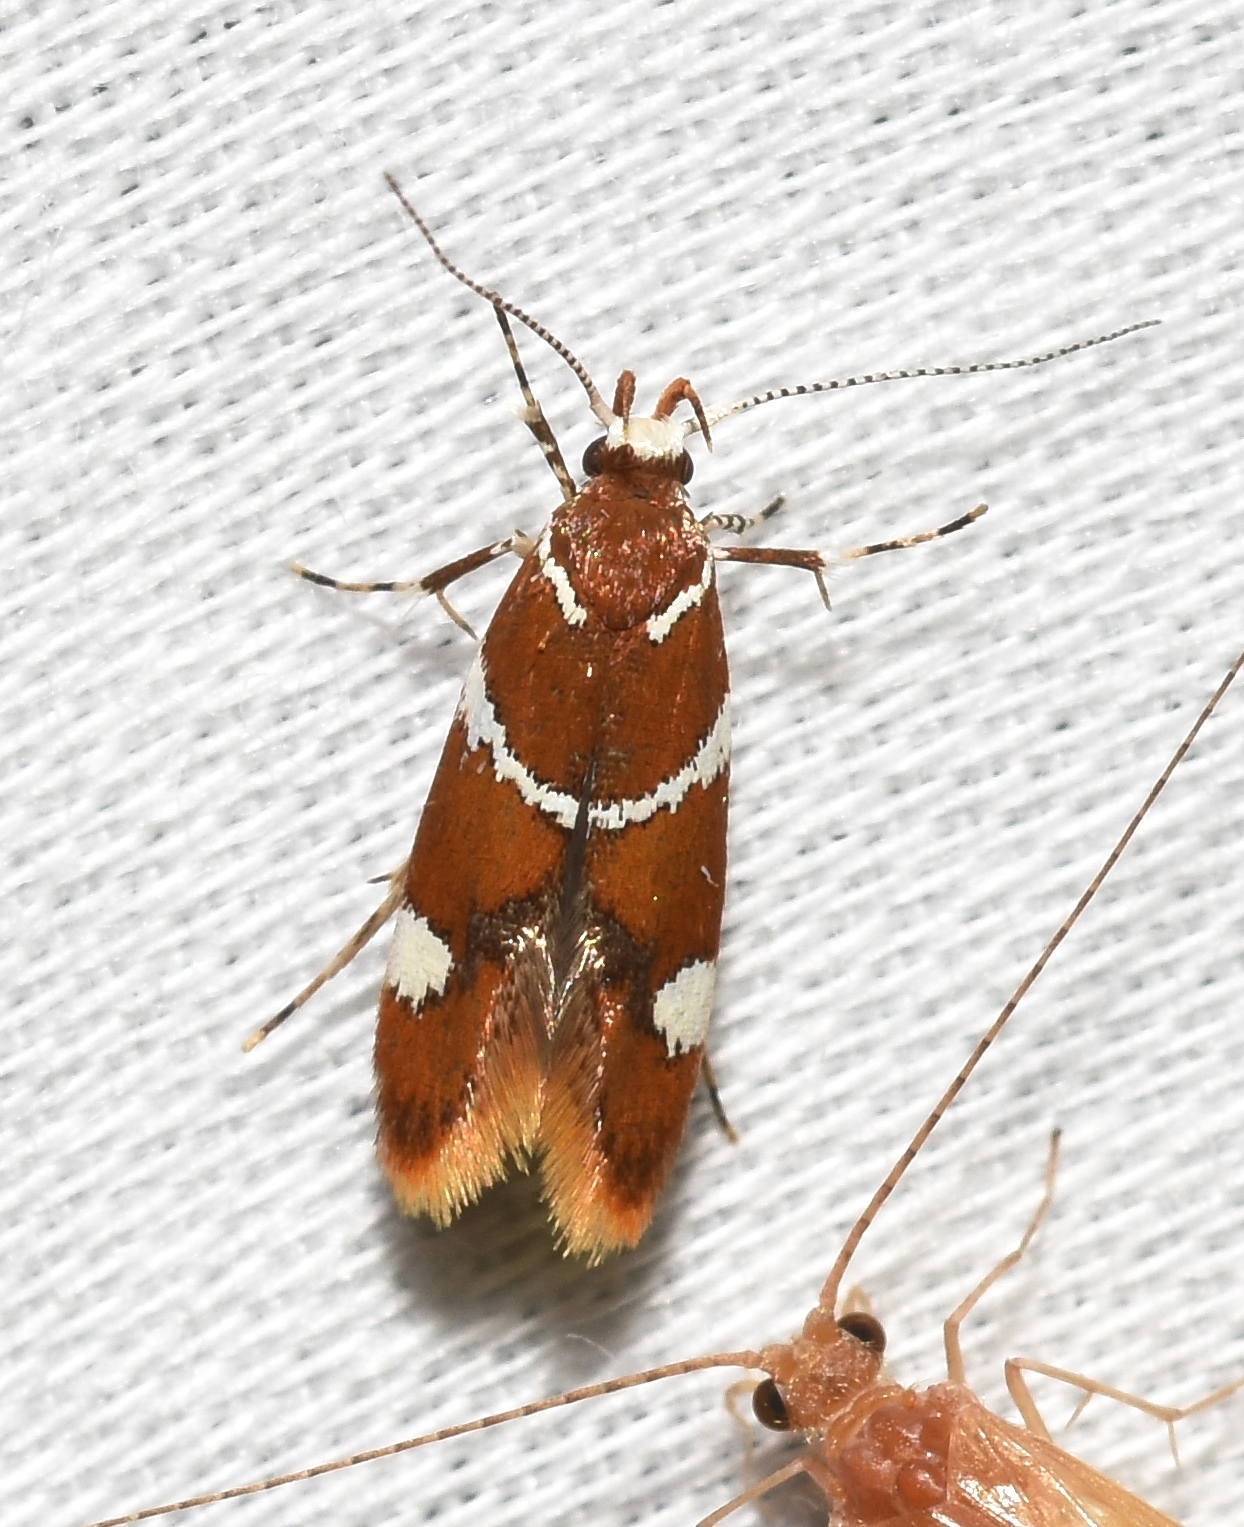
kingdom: Animalia
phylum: Arthropoda
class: Insecta
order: Lepidoptera
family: Oecophoridae
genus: Promalactis
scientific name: Promalactis suzukiella
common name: Moth
